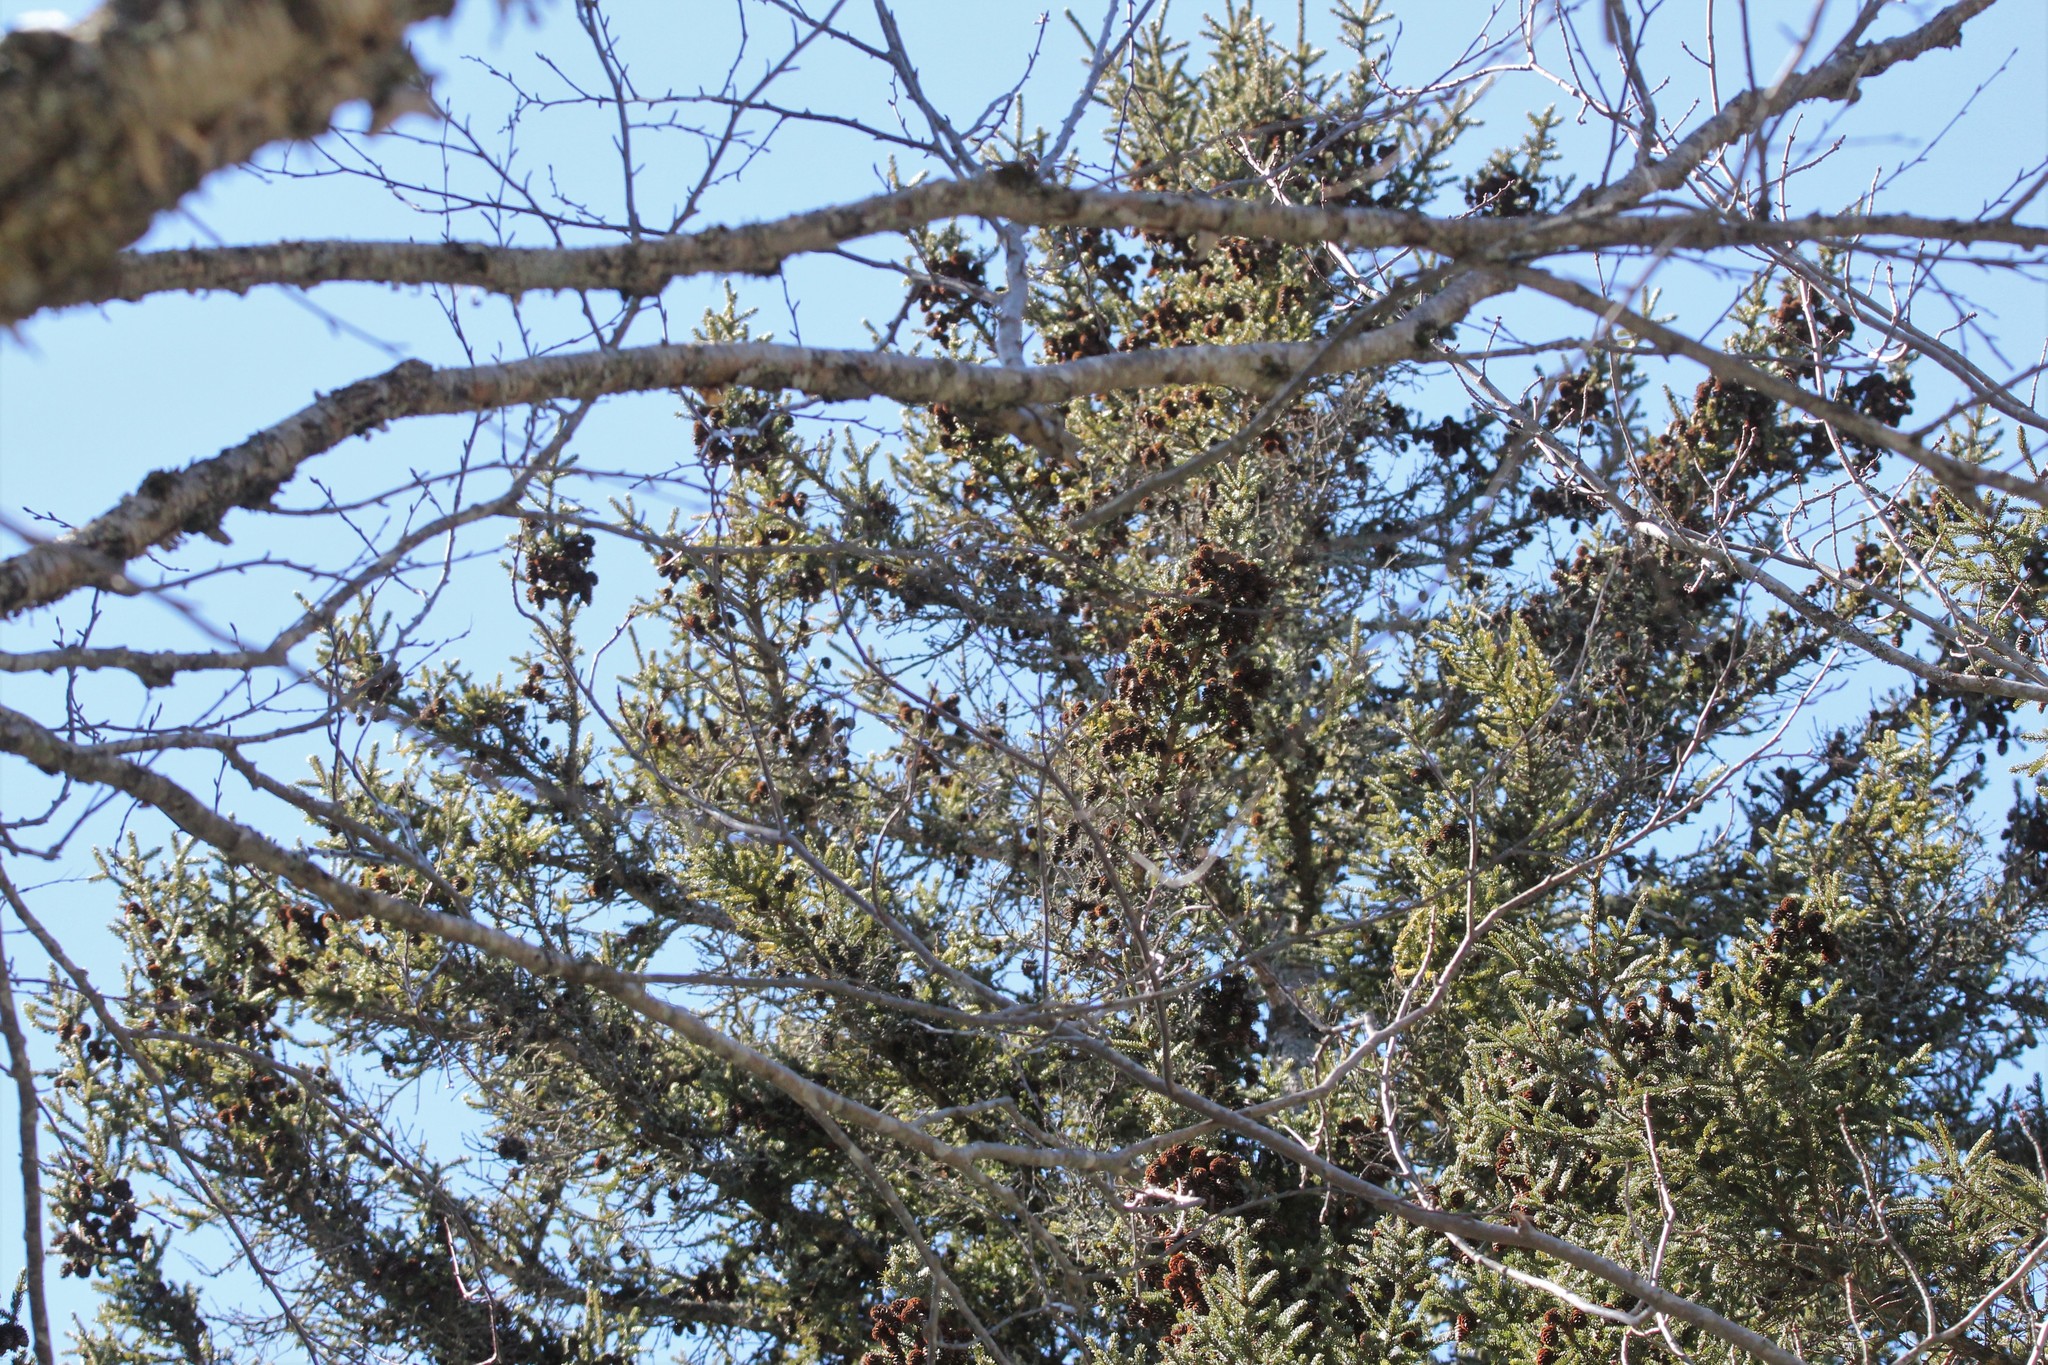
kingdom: Plantae
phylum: Tracheophyta
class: Pinopsida
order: Pinales
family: Pinaceae
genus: Picea
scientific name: Picea rubens
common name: Red spruce
